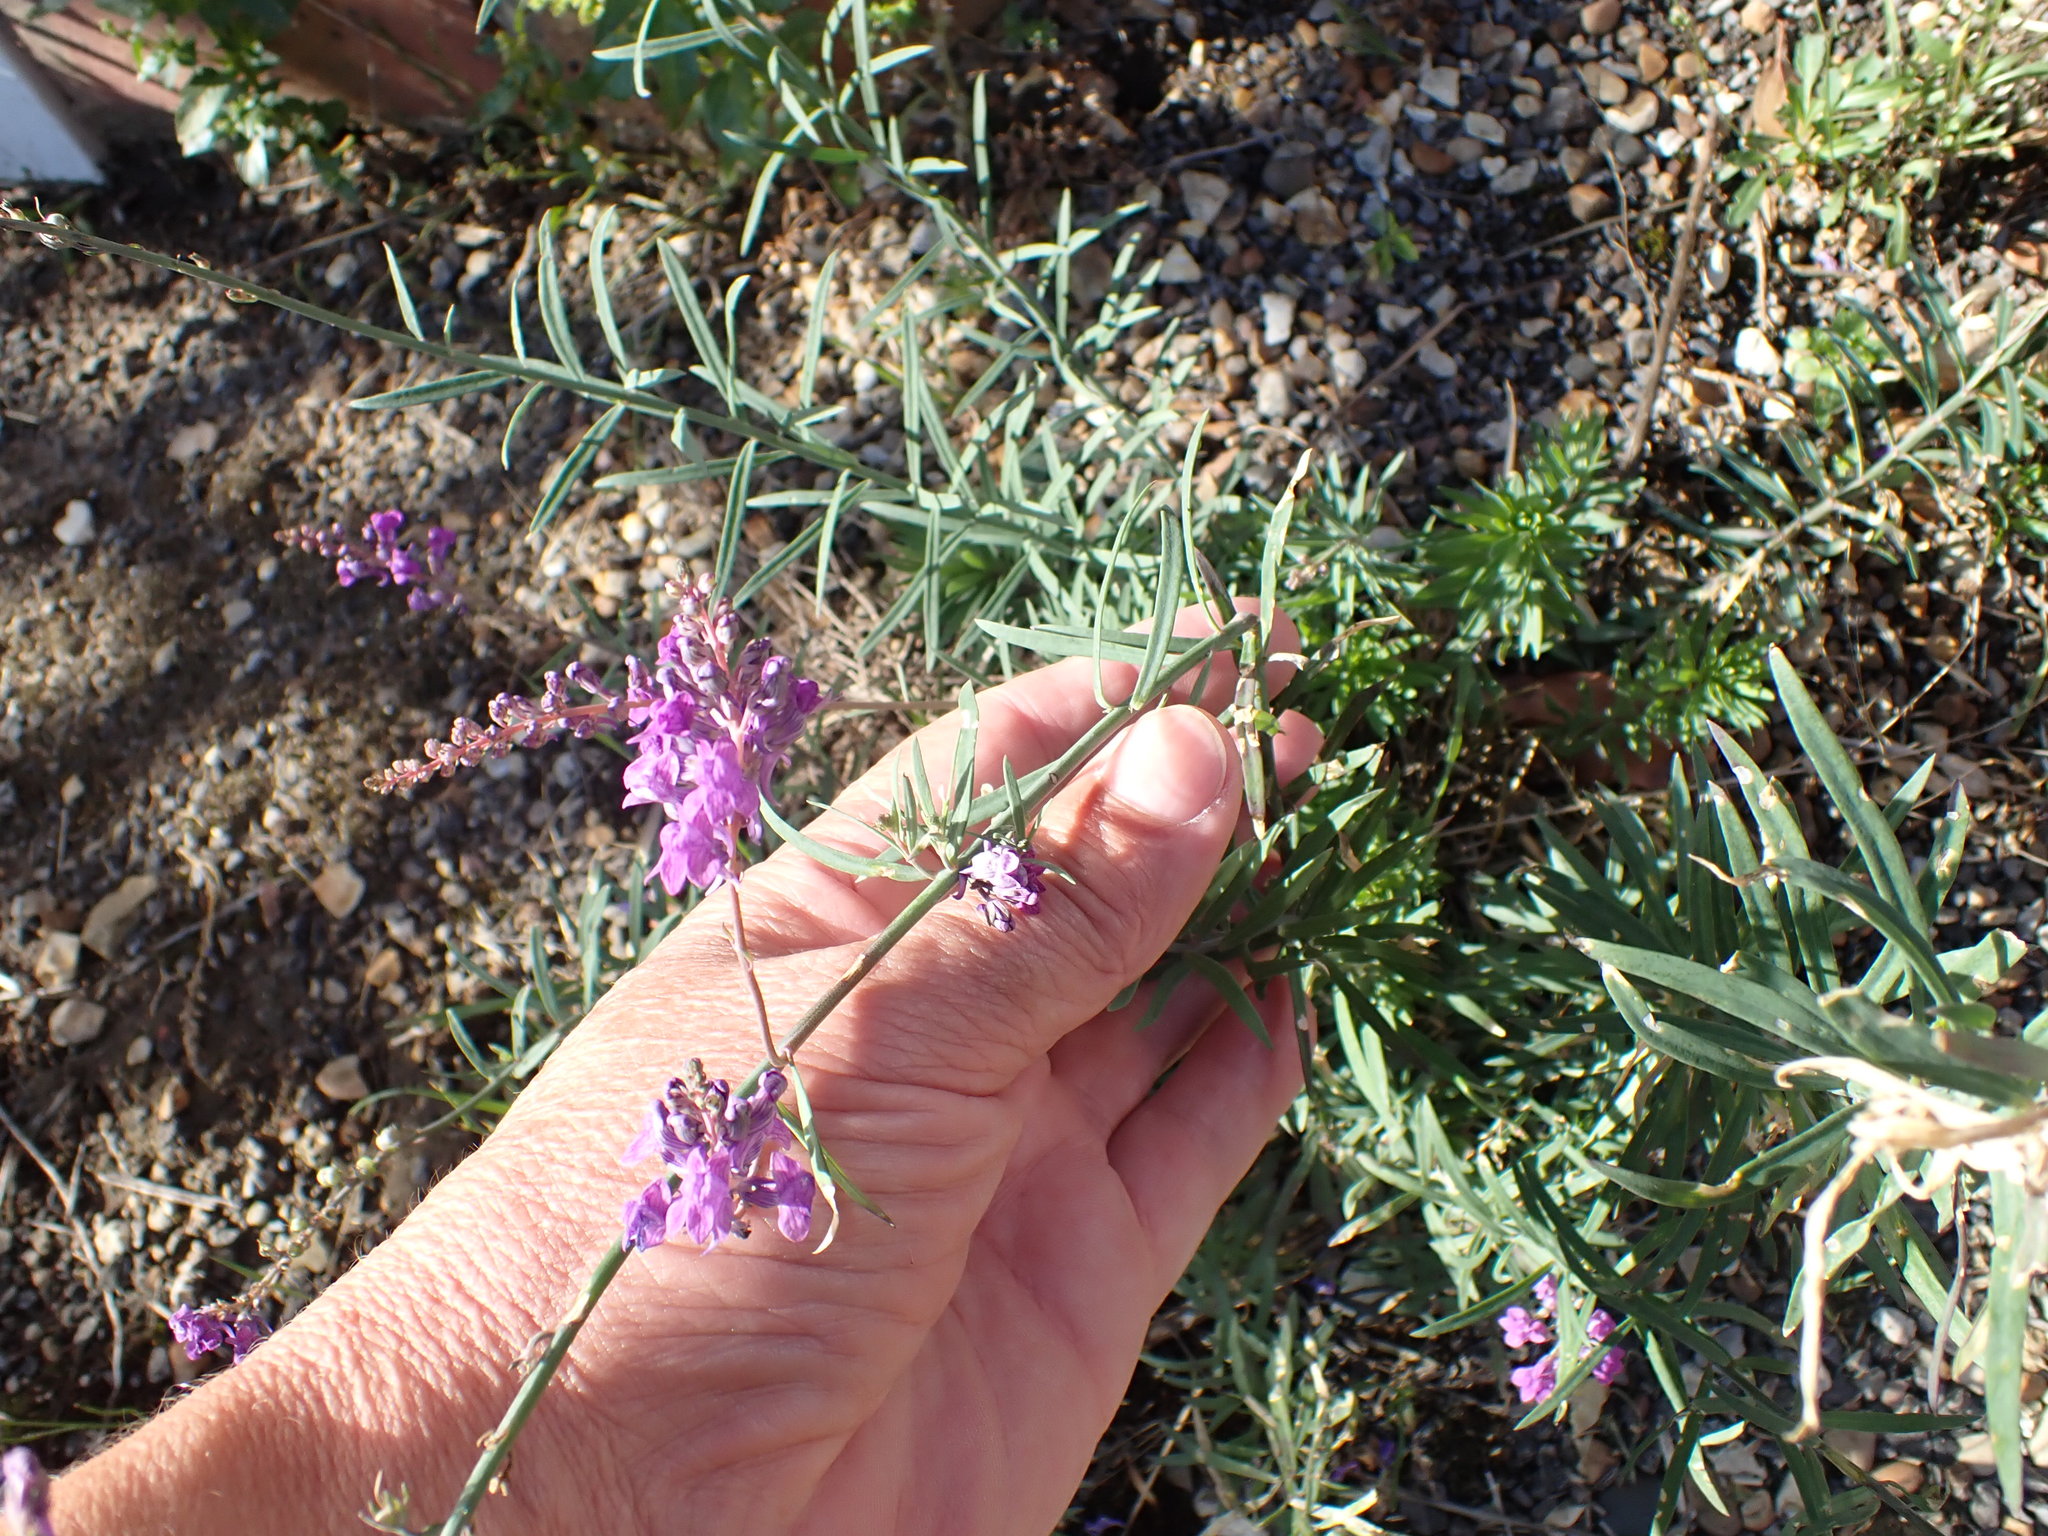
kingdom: Plantae
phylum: Tracheophyta
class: Magnoliopsida
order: Lamiales
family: Plantaginaceae
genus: Linaria
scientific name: Linaria purpurea
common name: Purple toadflax
